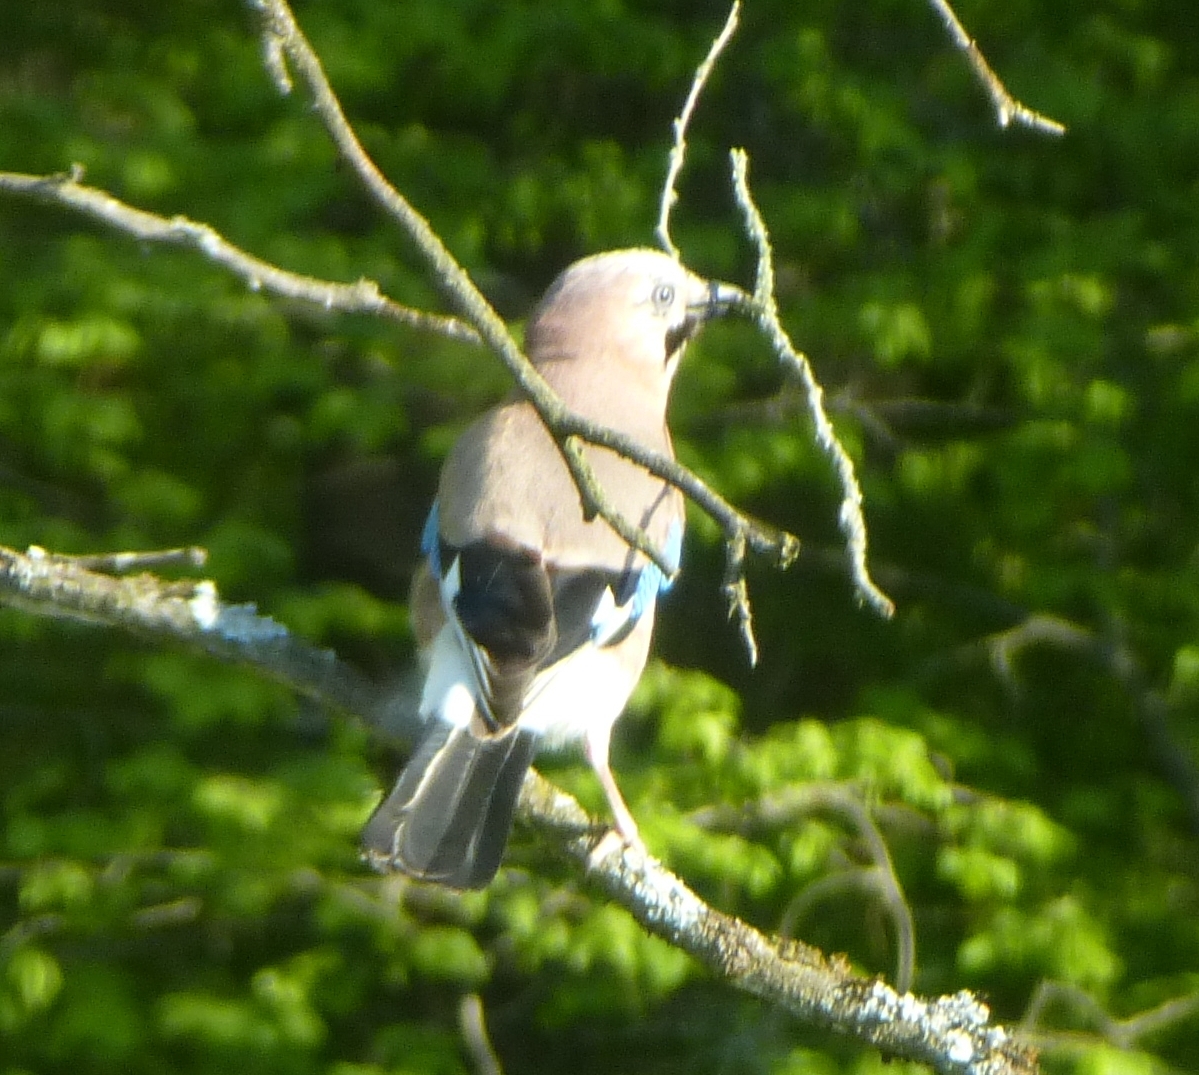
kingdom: Animalia
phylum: Chordata
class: Aves
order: Passeriformes
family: Corvidae
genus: Garrulus
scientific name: Garrulus glandarius
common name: Eurasian jay
